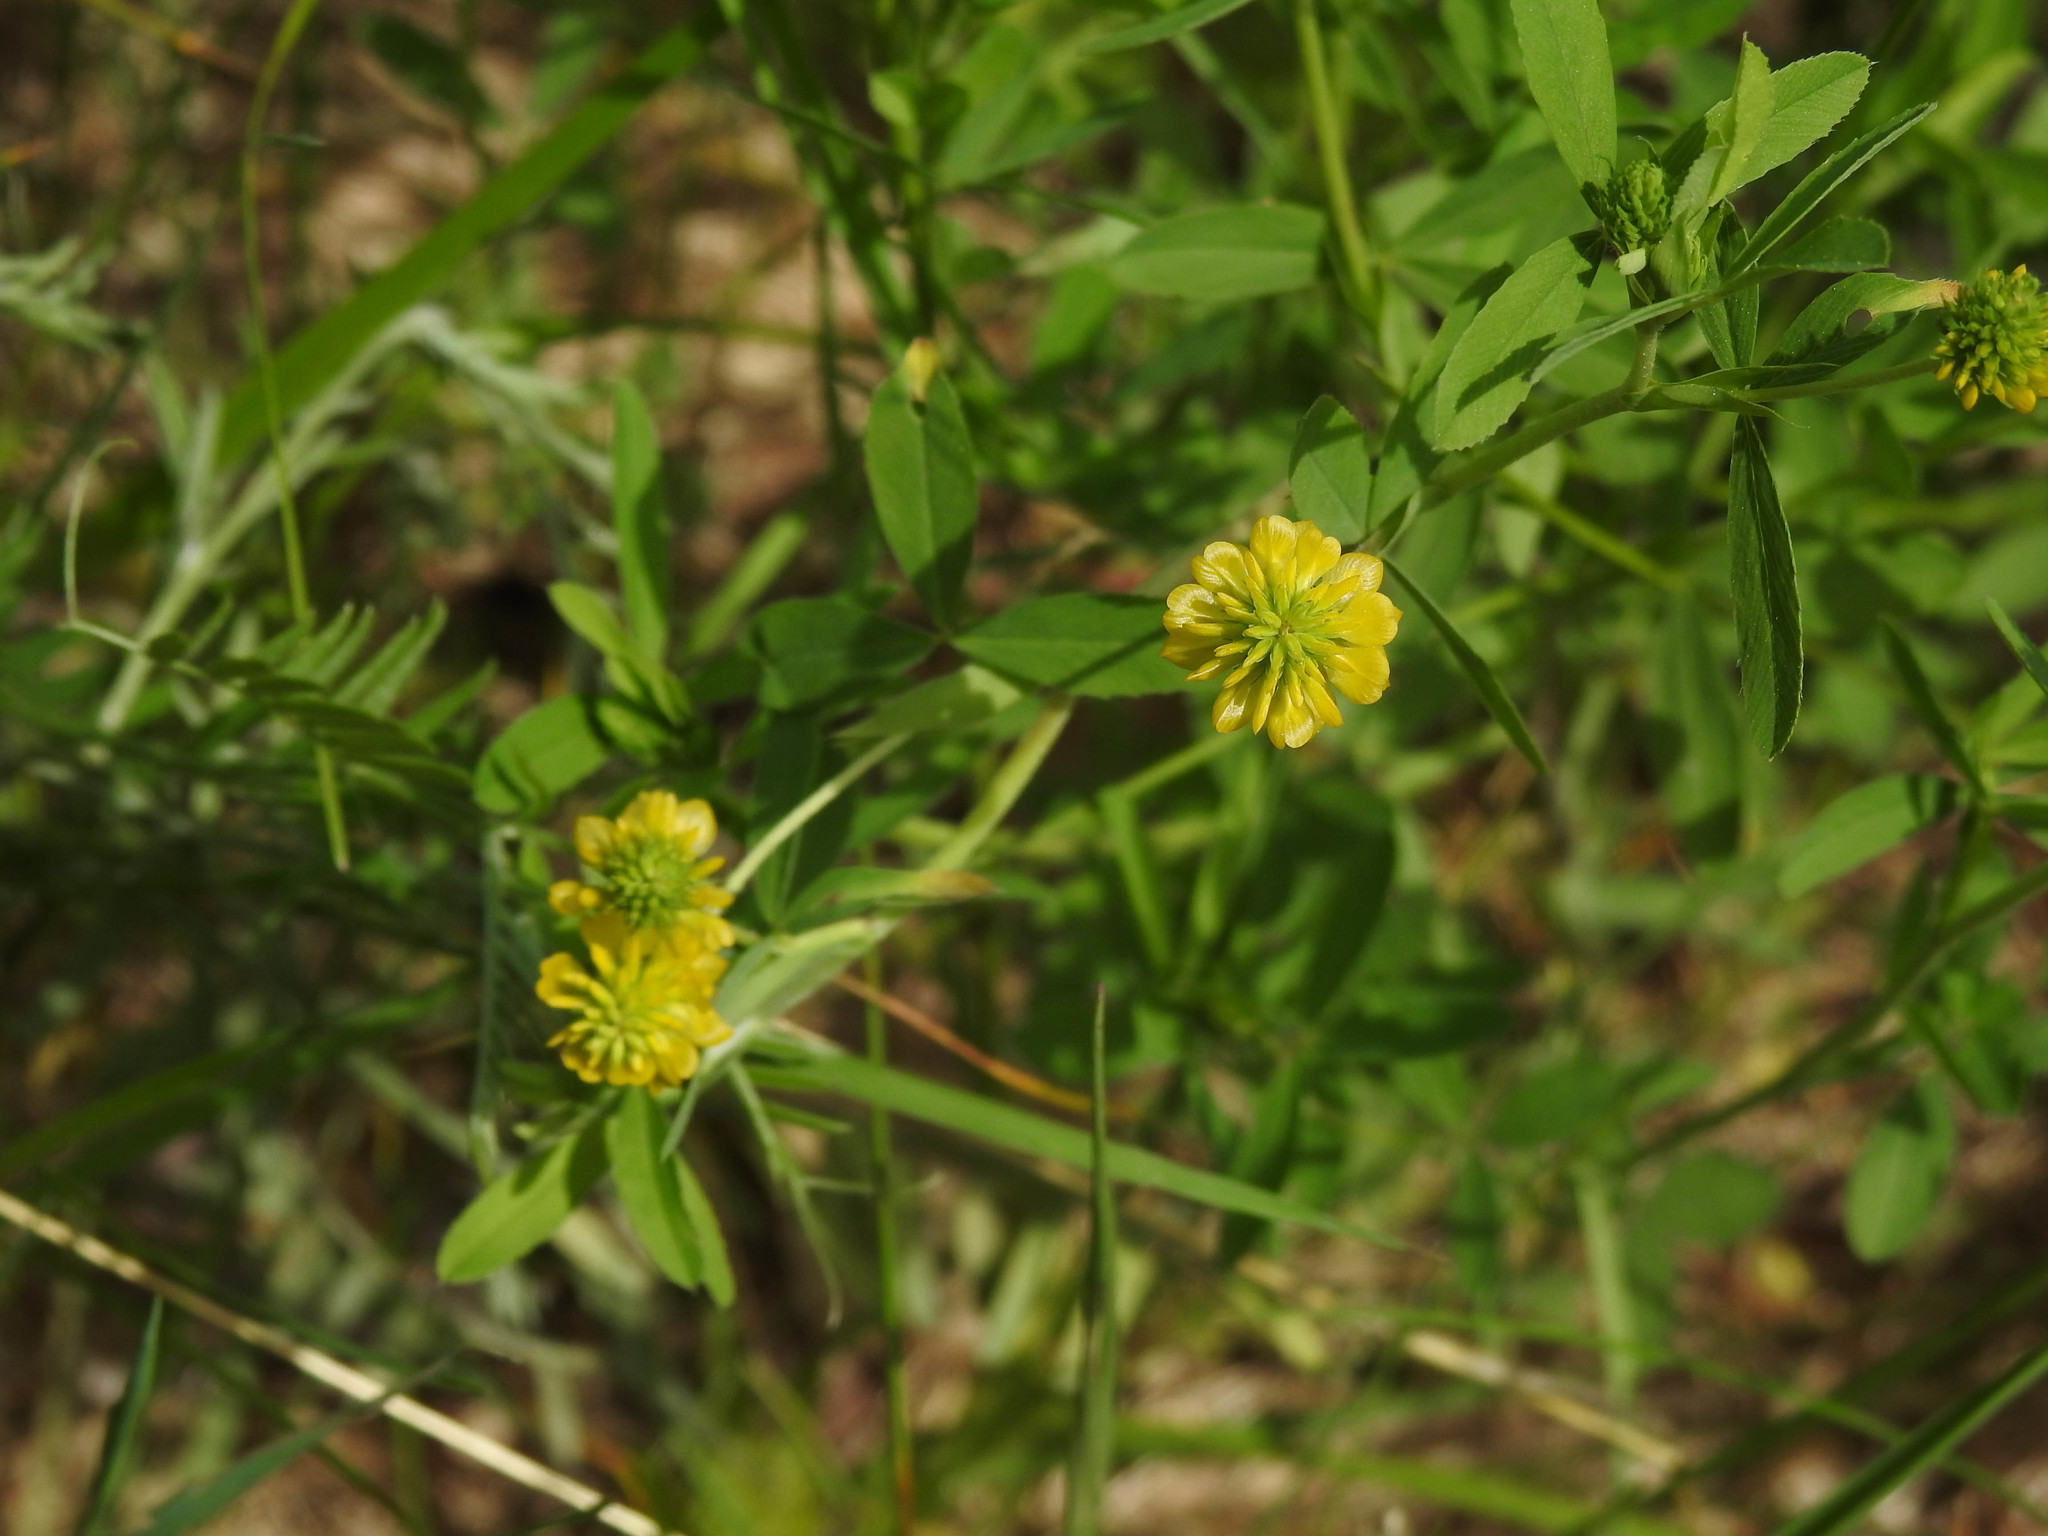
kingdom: Plantae
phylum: Tracheophyta
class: Magnoliopsida
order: Fabales
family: Fabaceae
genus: Trifolium
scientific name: Trifolium aureum
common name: Golden clover
